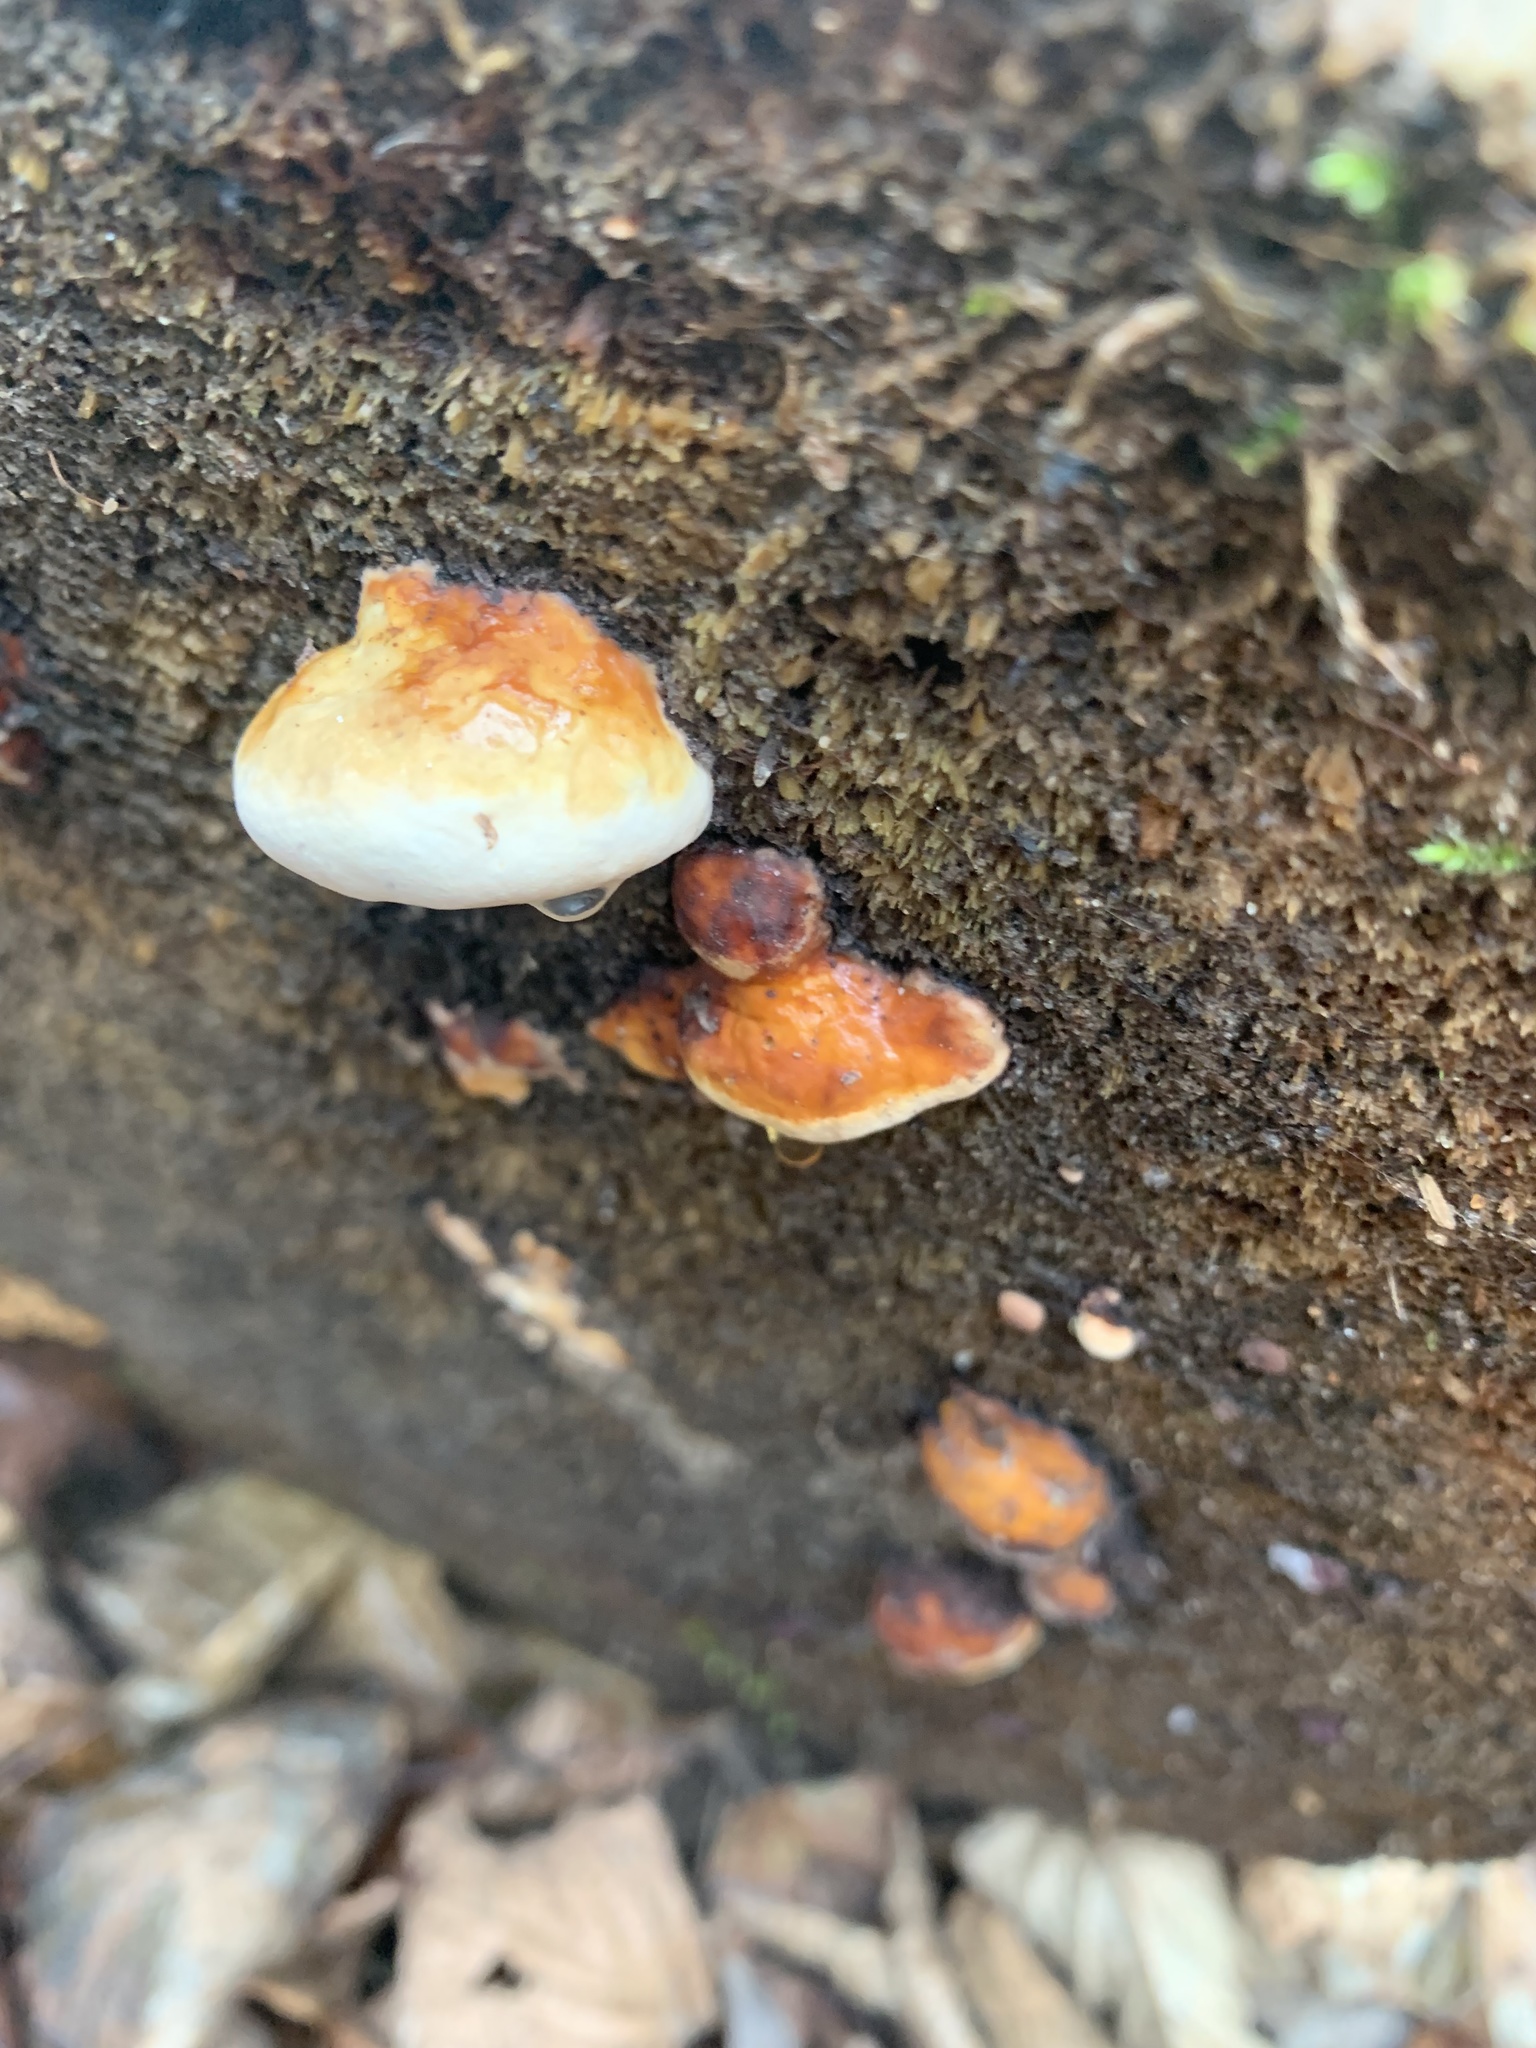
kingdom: Fungi
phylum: Basidiomycota
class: Agaricomycetes
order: Polyporales
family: Fomitopsidaceae
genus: Fomitopsis
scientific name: Fomitopsis pinicola
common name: Red-belted bracket
